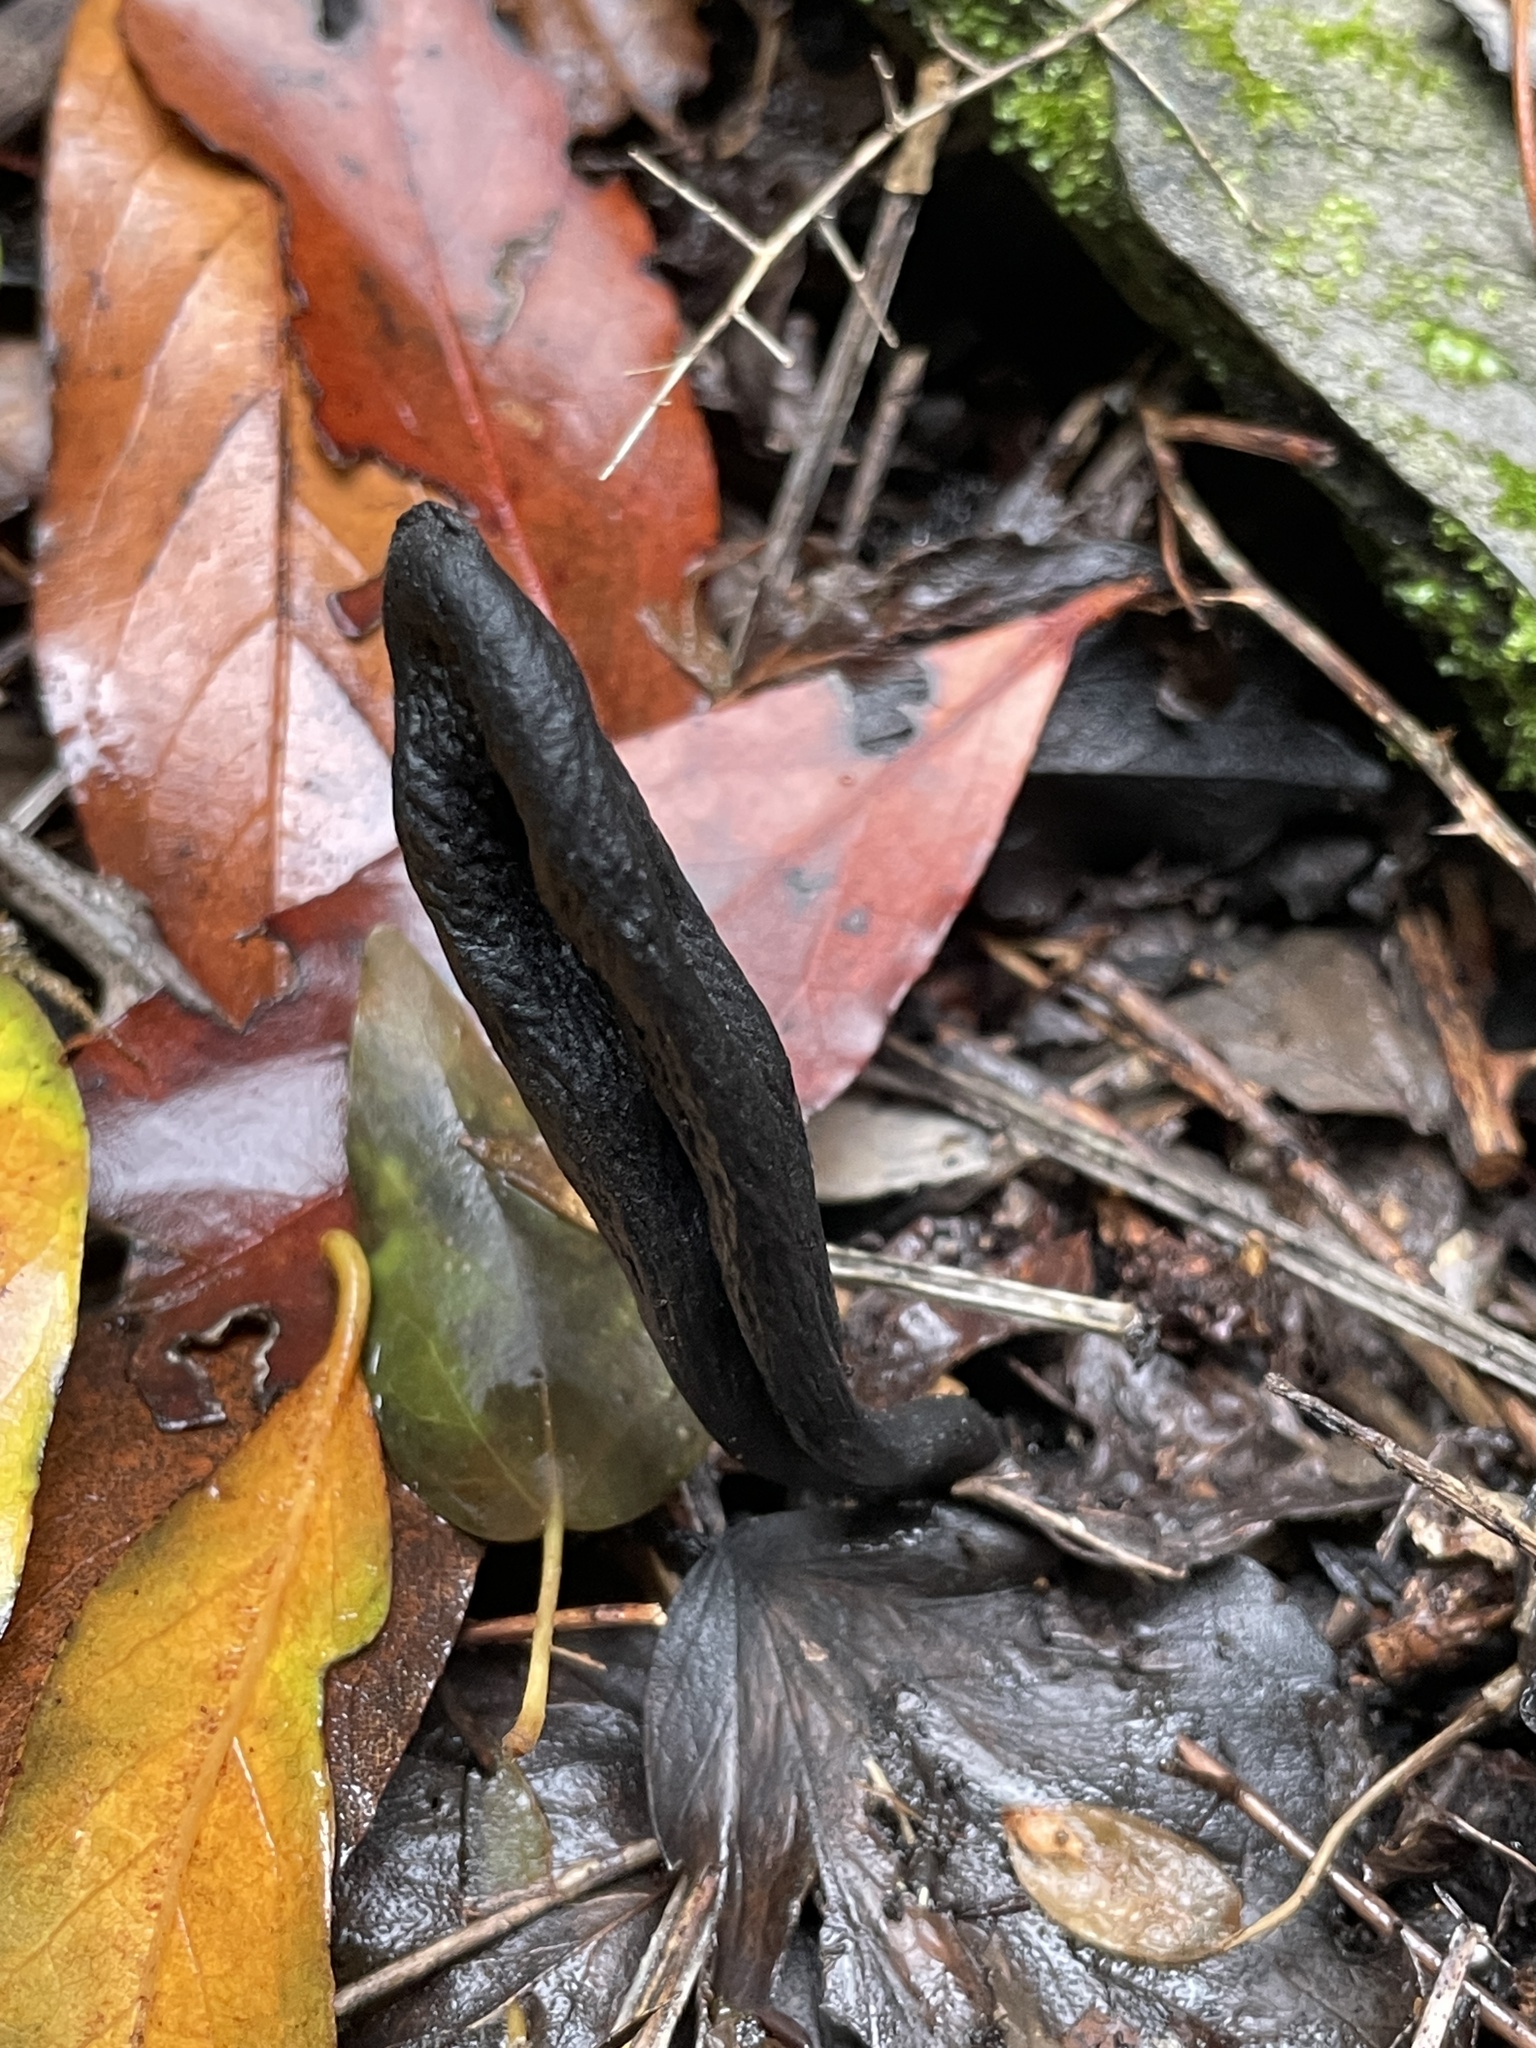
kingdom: Fungi
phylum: Ascomycota
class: Sordariomycetes
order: Xylariales
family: Xylariaceae
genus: Xylaria
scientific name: Xylaria polymorpha
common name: Dead man's fingers
